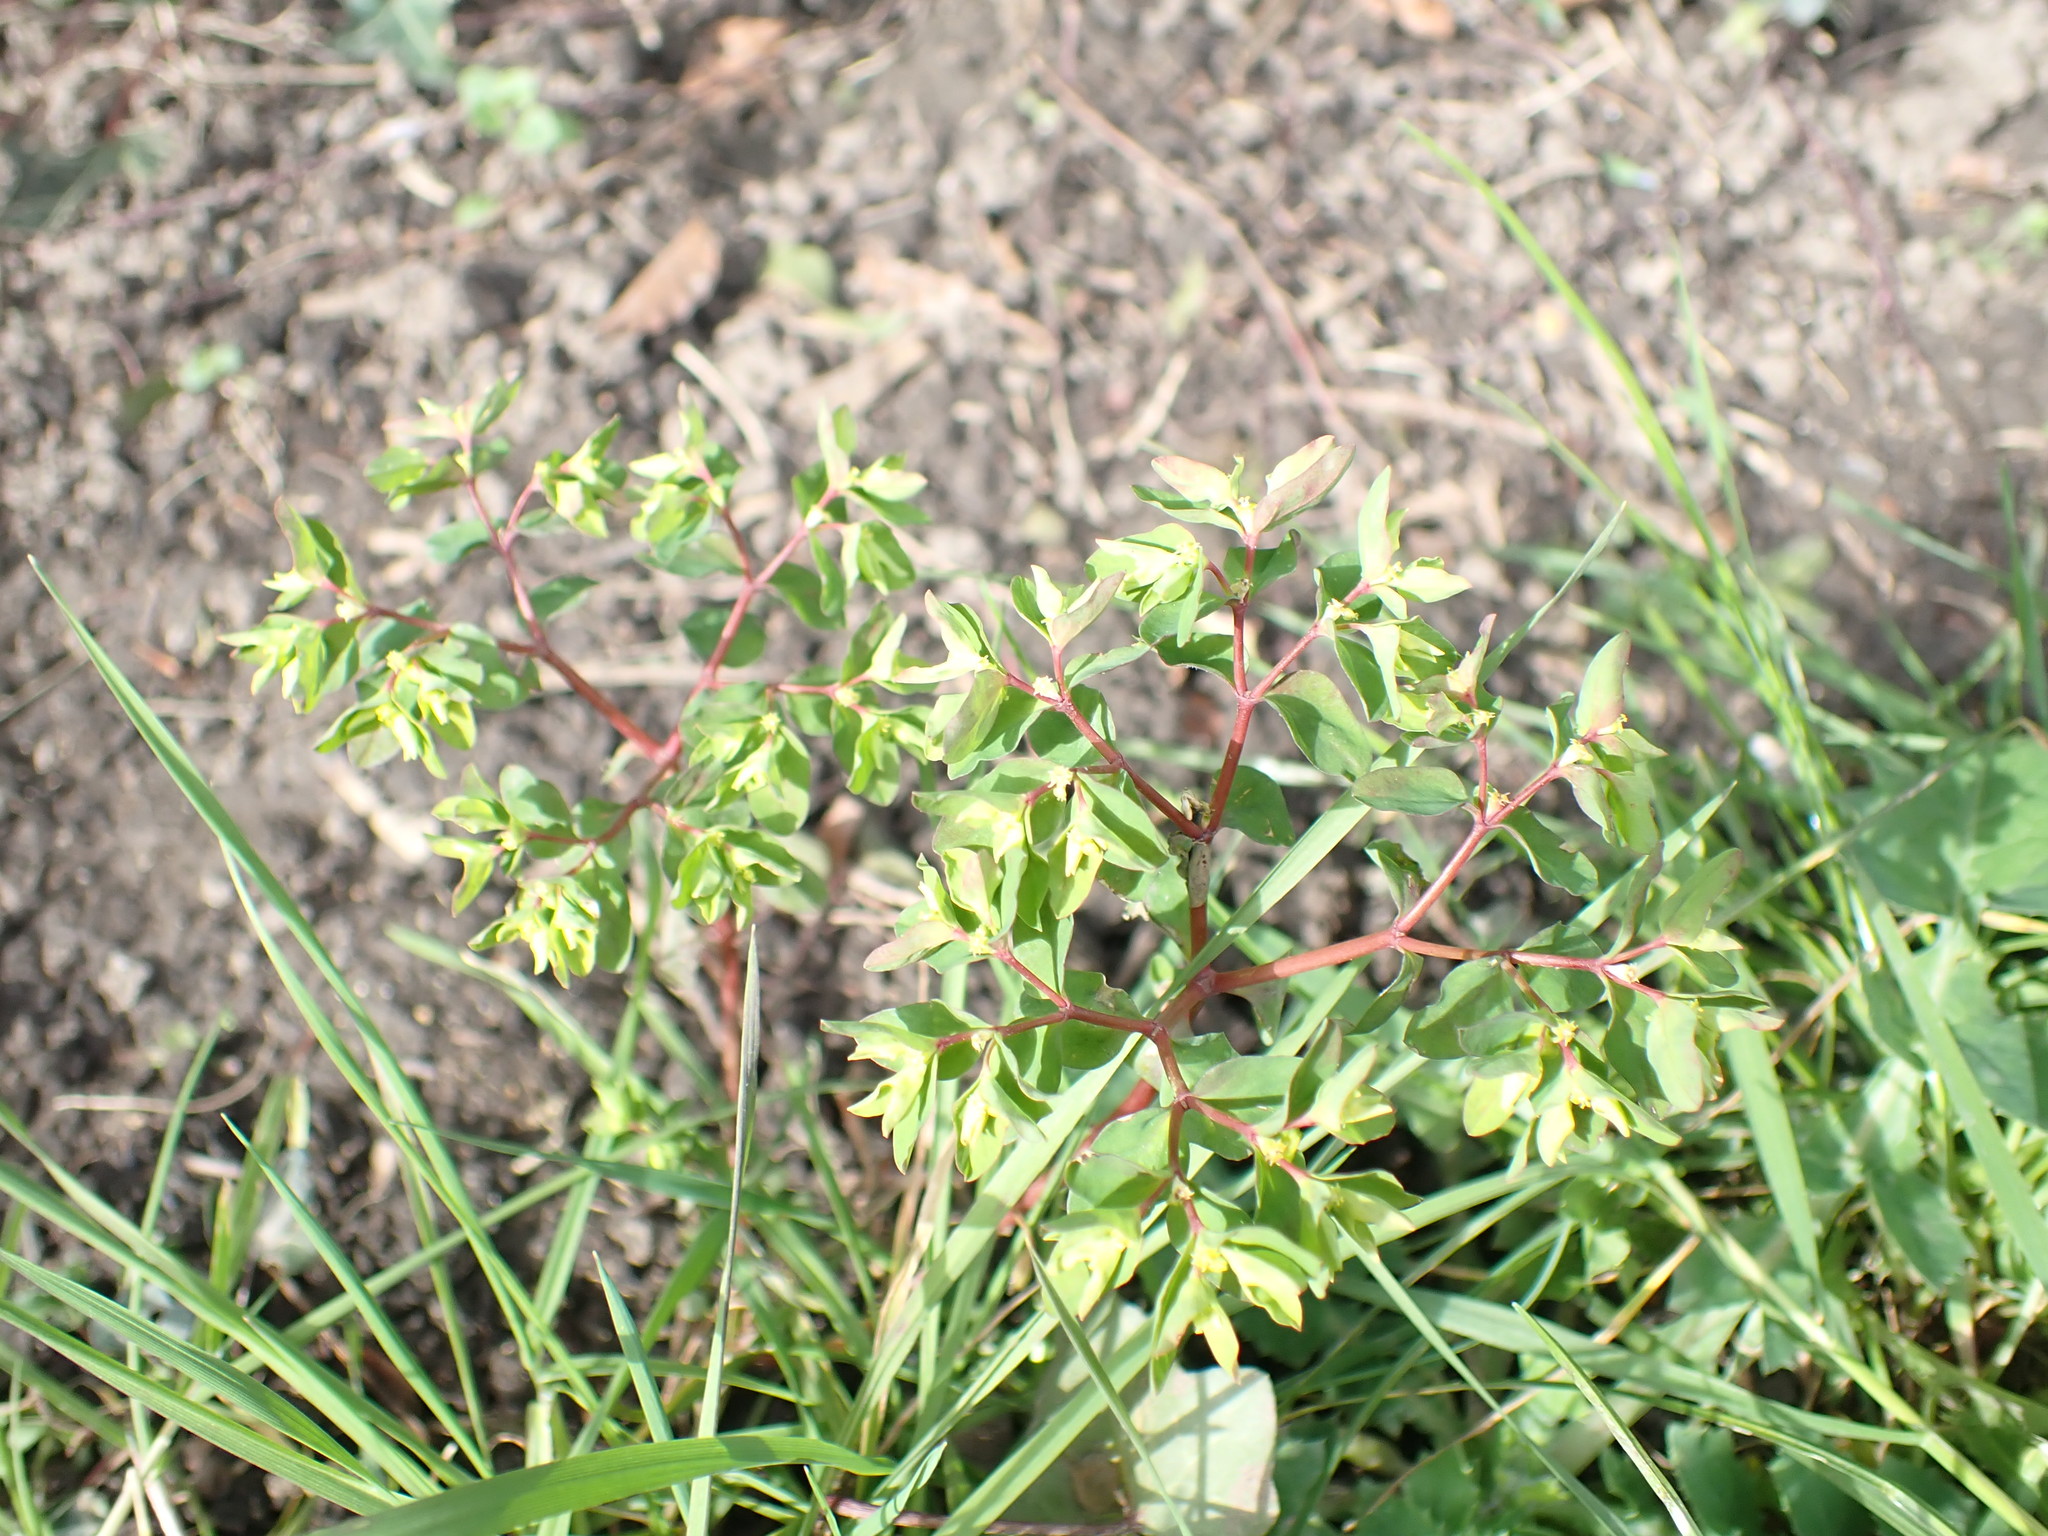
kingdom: Plantae
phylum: Tracheophyta
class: Magnoliopsida
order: Malpighiales
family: Euphorbiaceae
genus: Euphorbia
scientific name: Euphorbia peplus
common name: Petty spurge
